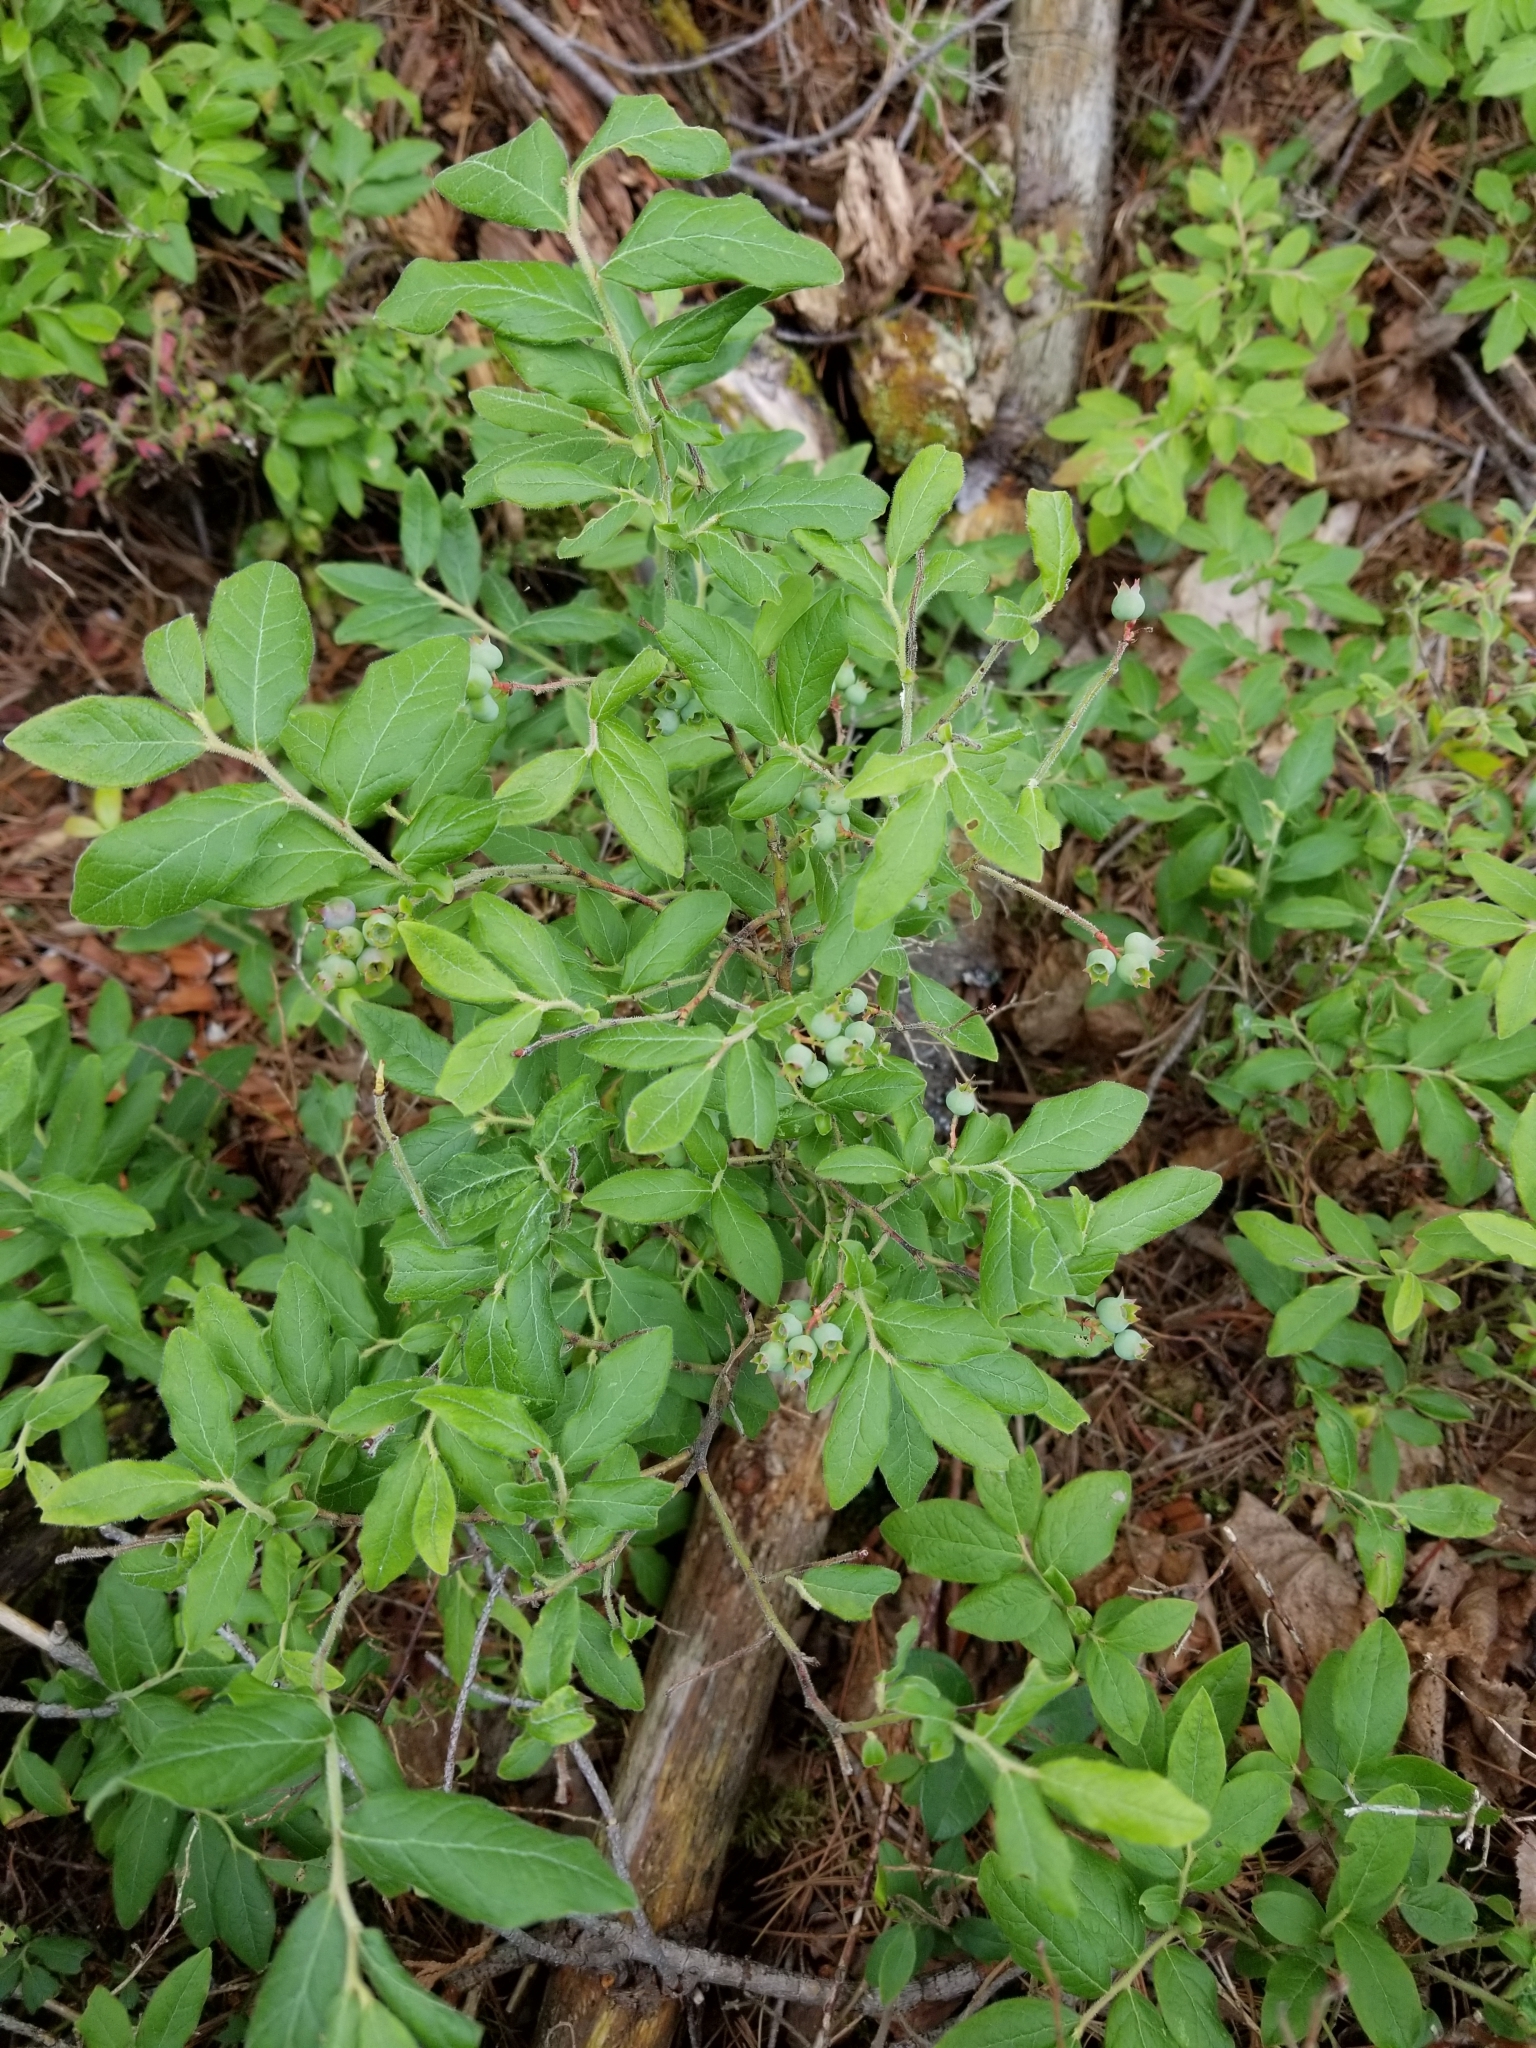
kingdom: Plantae
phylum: Tracheophyta
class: Magnoliopsida
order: Ericales
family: Ericaceae
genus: Vaccinium
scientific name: Vaccinium myrtilloides
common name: Canada blueberry
